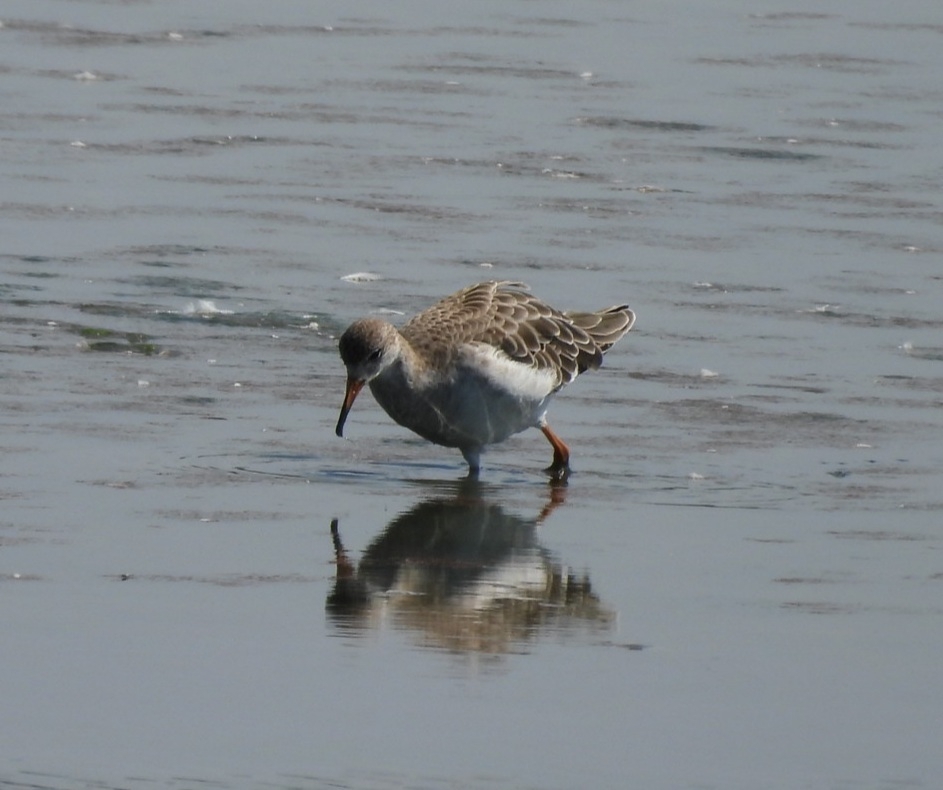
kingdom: Animalia
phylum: Chordata
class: Aves
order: Charadriiformes
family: Scolopacidae
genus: Calidris
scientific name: Calidris pugnax
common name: Ruff
